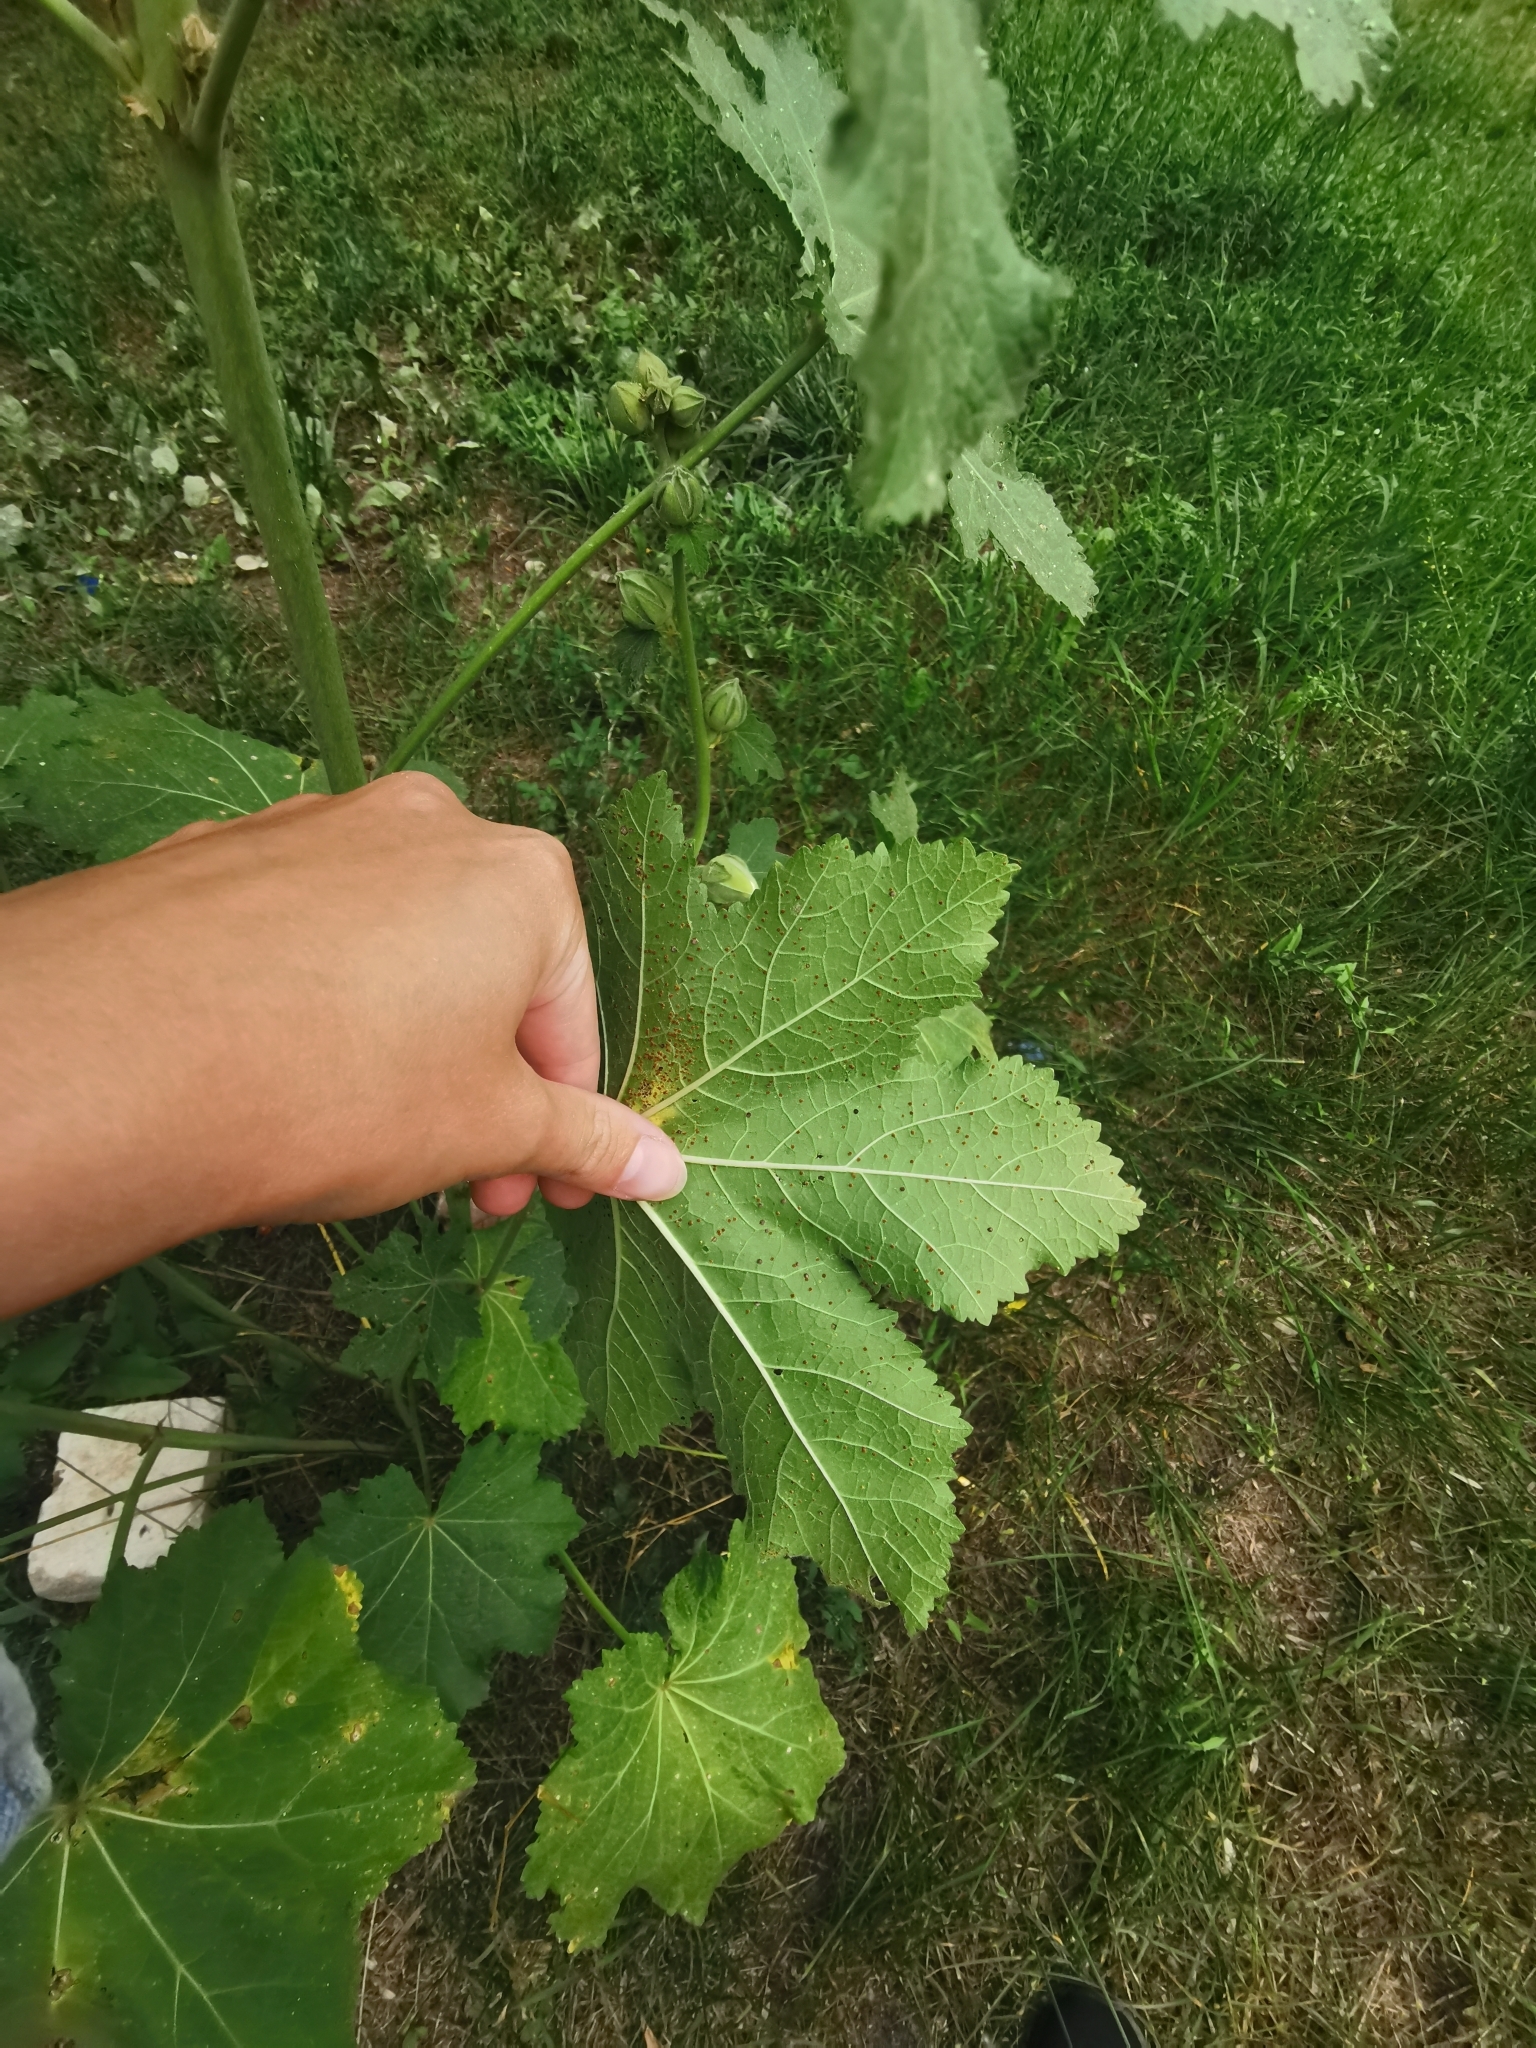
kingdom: Fungi
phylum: Basidiomycota
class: Pucciniomycetes
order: Pucciniales
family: Pucciniaceae
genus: Puccinia
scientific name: Puccinia malvacearum
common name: Hollyhock rust
